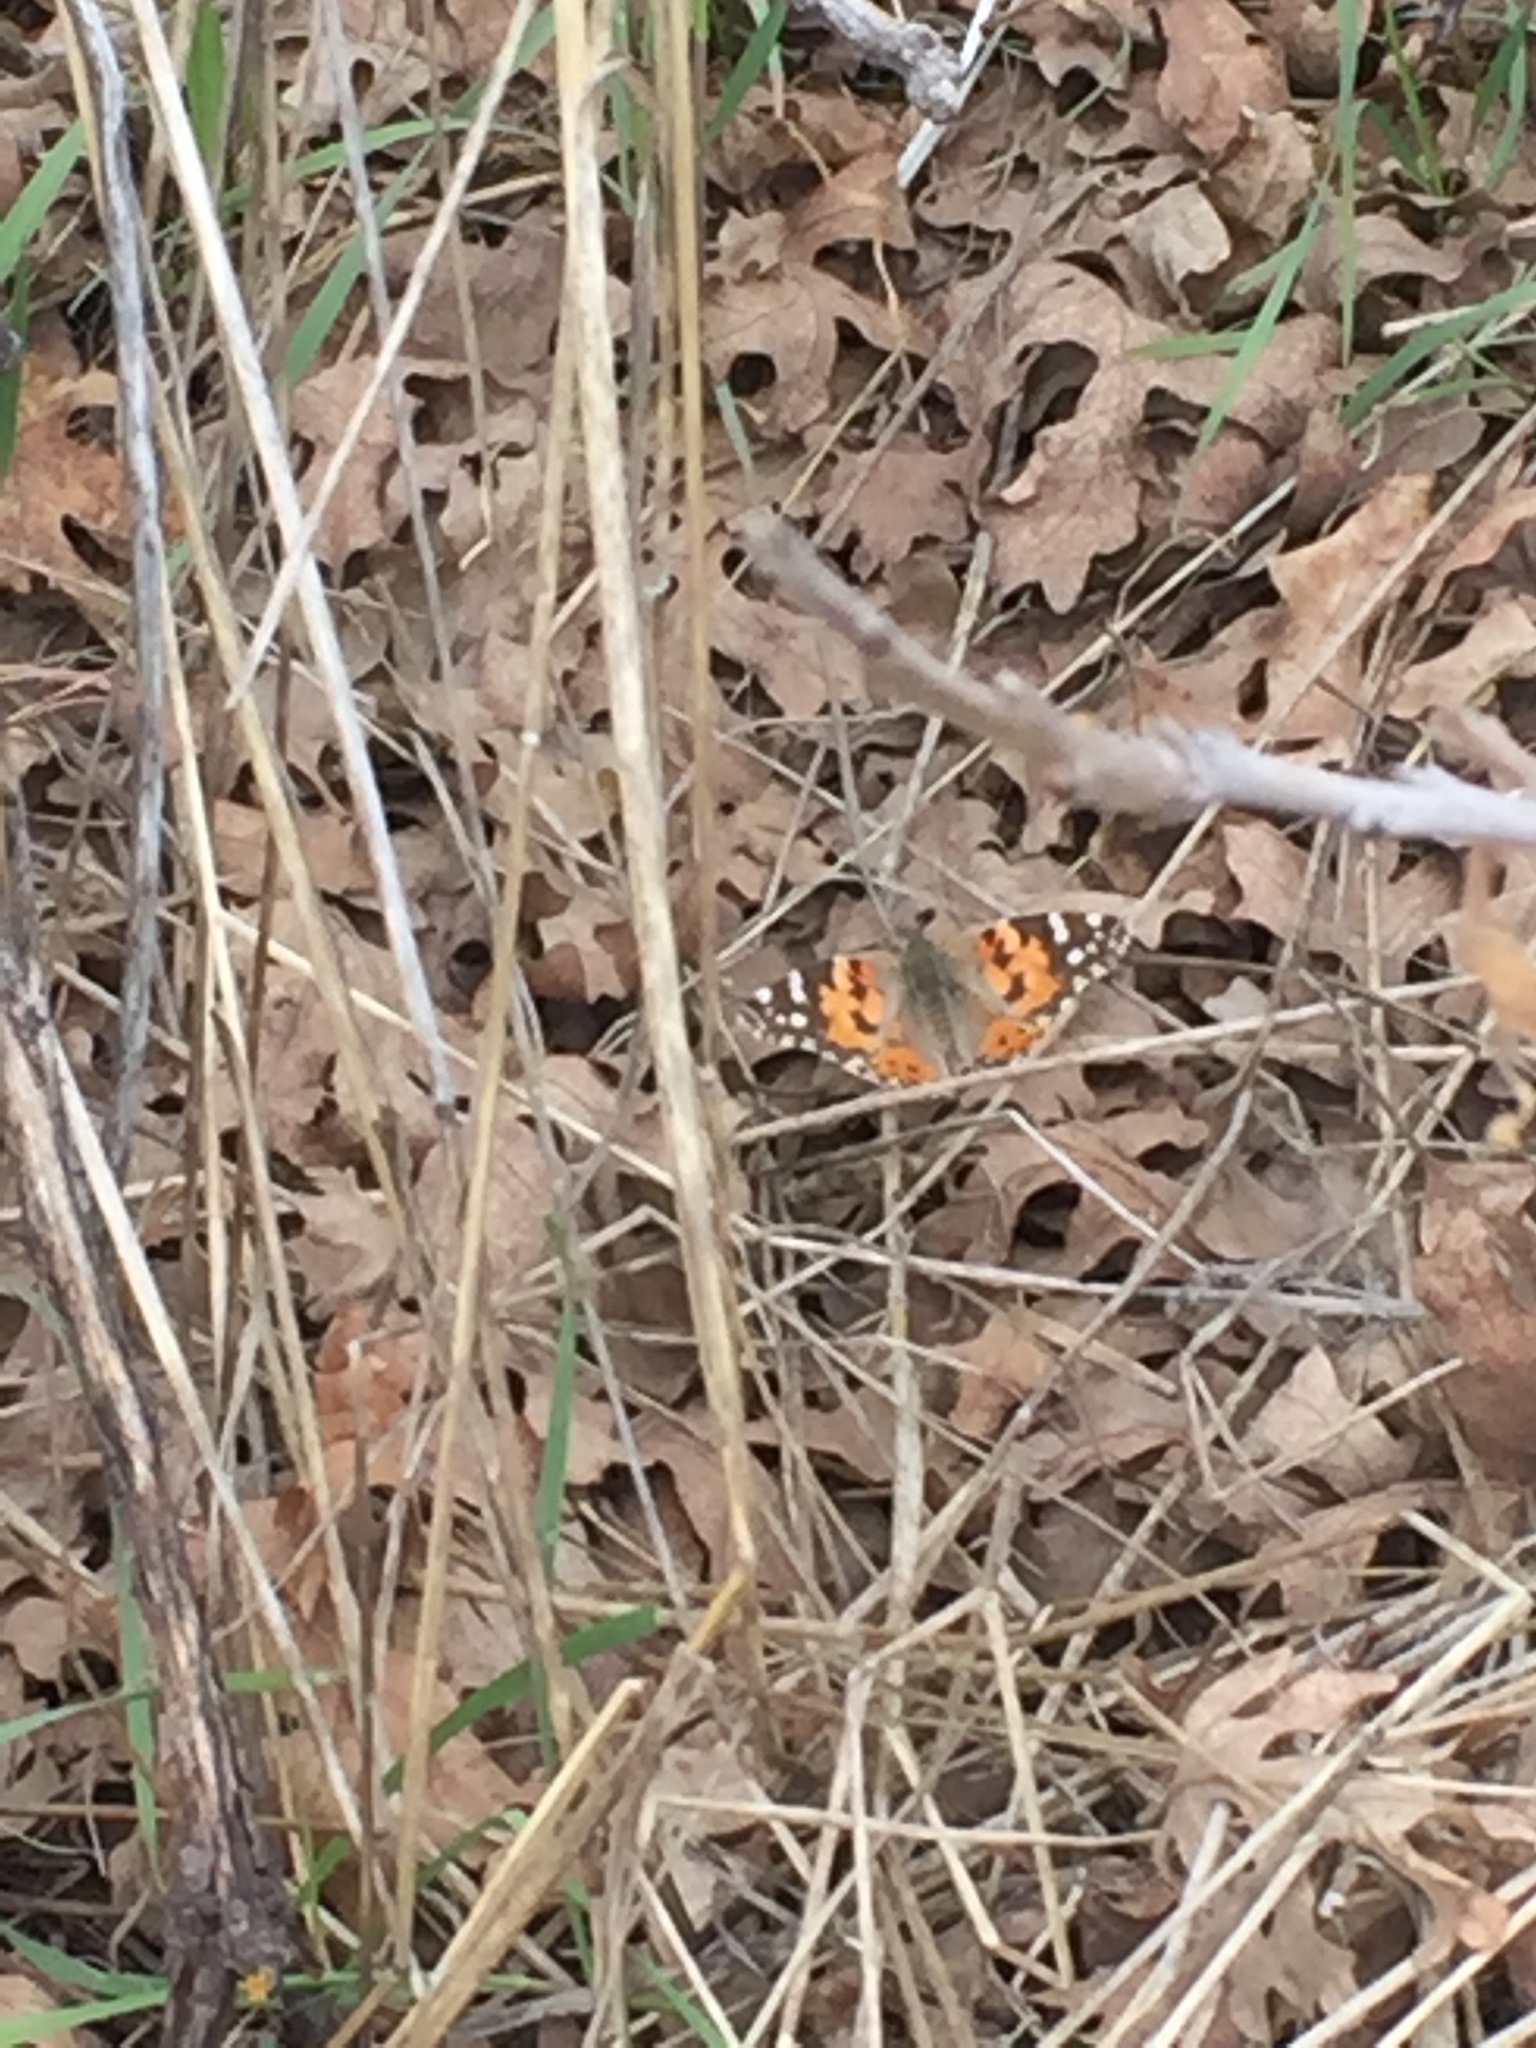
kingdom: Animalia
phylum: Arthropoda
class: Insecta
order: Lepidoptera
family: Nymphalidae
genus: Vanessa
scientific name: Vanessa cardui
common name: Painted lady
